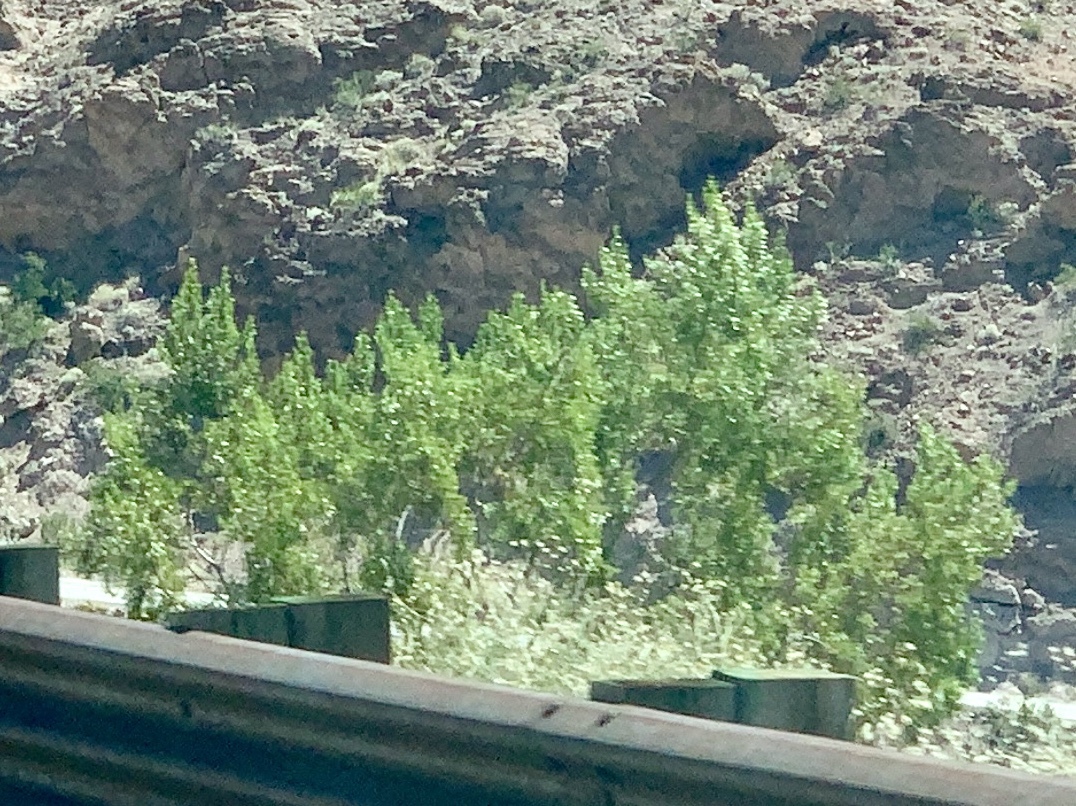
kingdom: Plantae
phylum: Tracheophyta
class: Magnoliopsida
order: Zygophyllales
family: Zygophyllaceae
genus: Larrea
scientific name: Larrea tridentata
